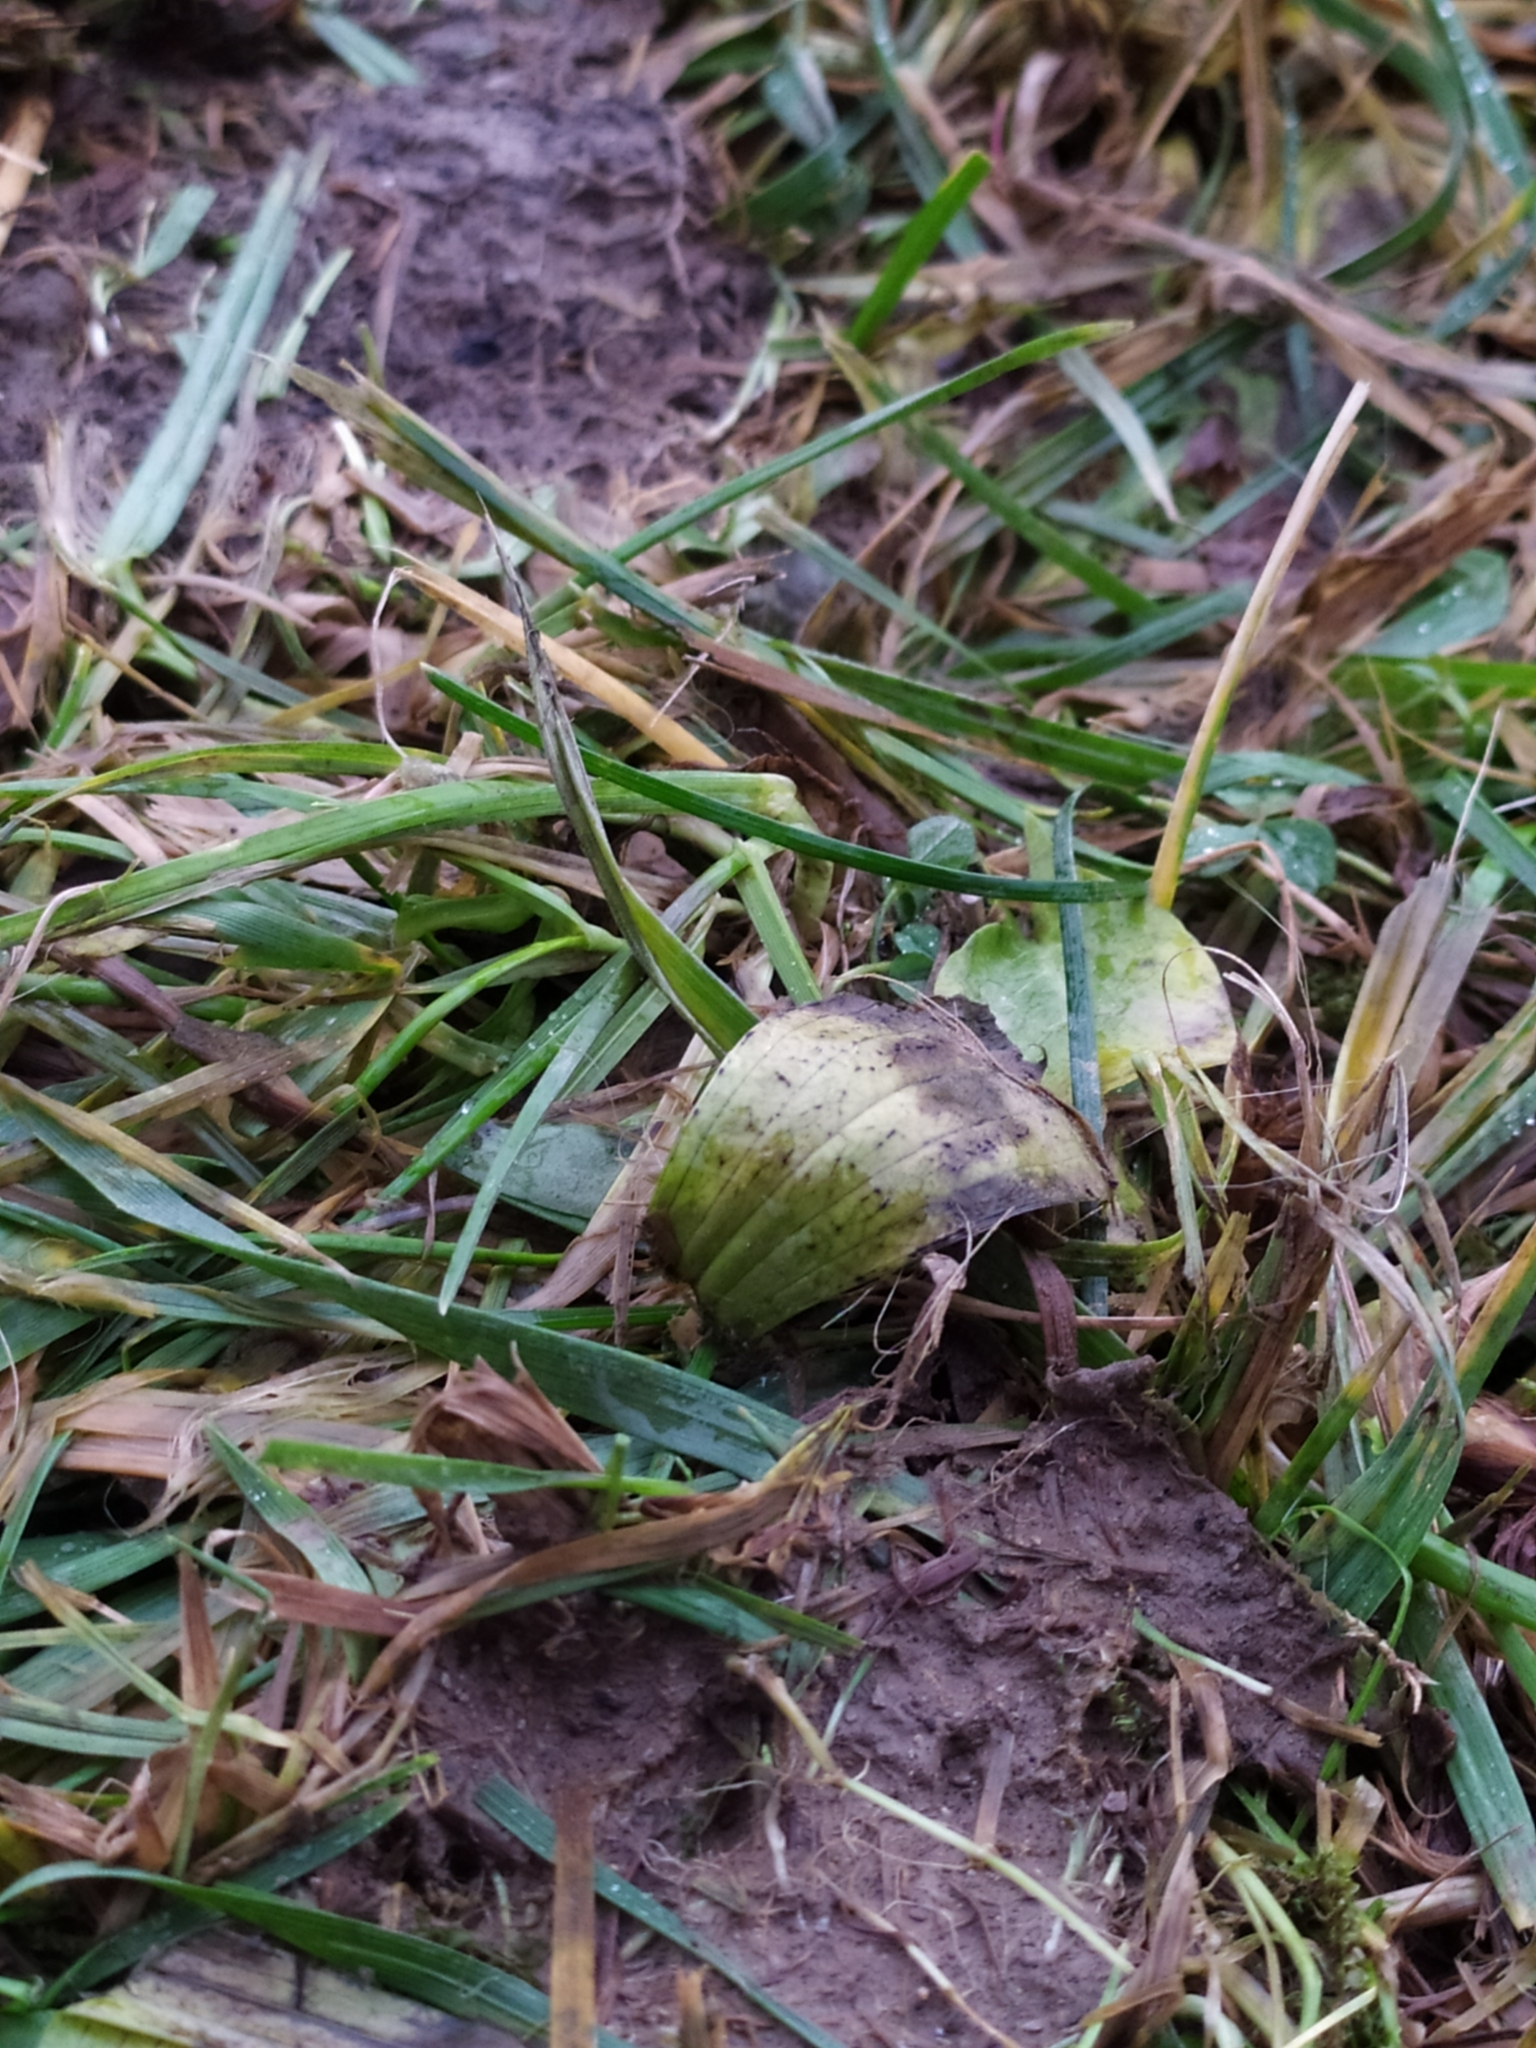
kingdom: Fungi
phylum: Ascomycota
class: Leotiomycetes
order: Helotiales
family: Drepanopezizaceae
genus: Spilopodia
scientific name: Spilopodia nervisequa
